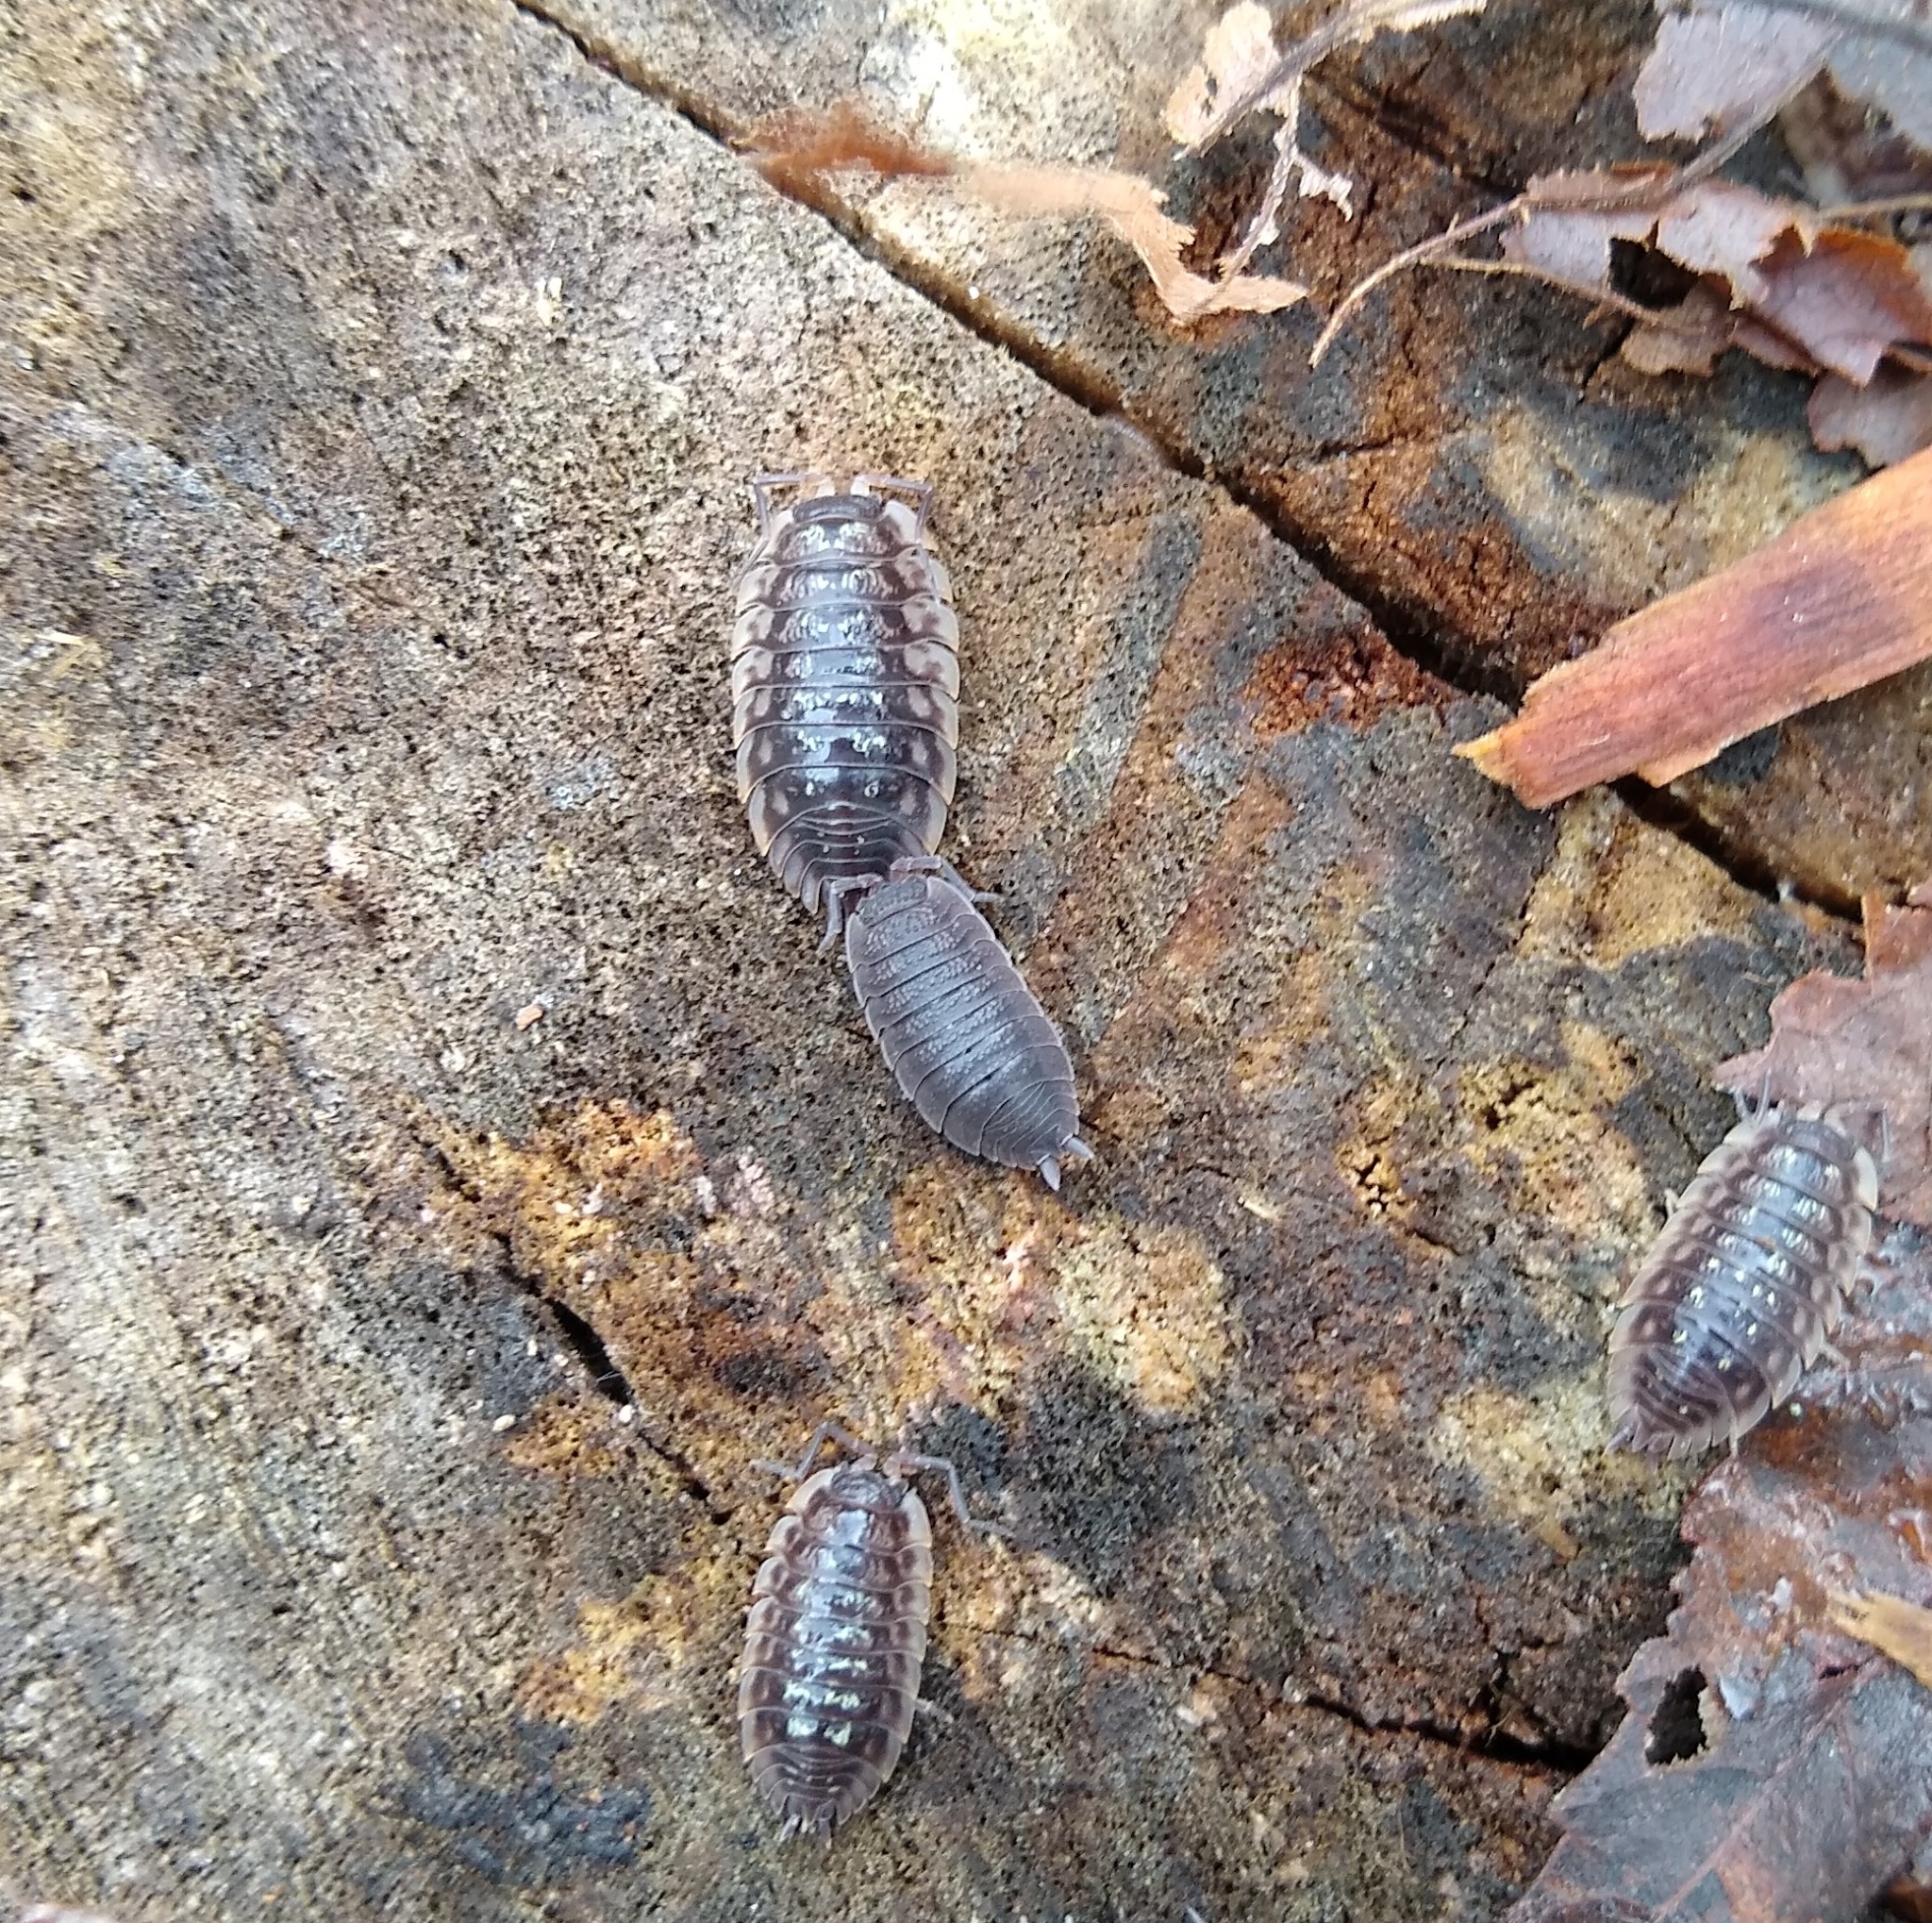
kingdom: Animalia
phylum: Arthropoda
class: Malacostraca
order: Isopoda
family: Porcellionidae
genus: Porcellio
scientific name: Porcellio scaber
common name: Common rough woodlouse
